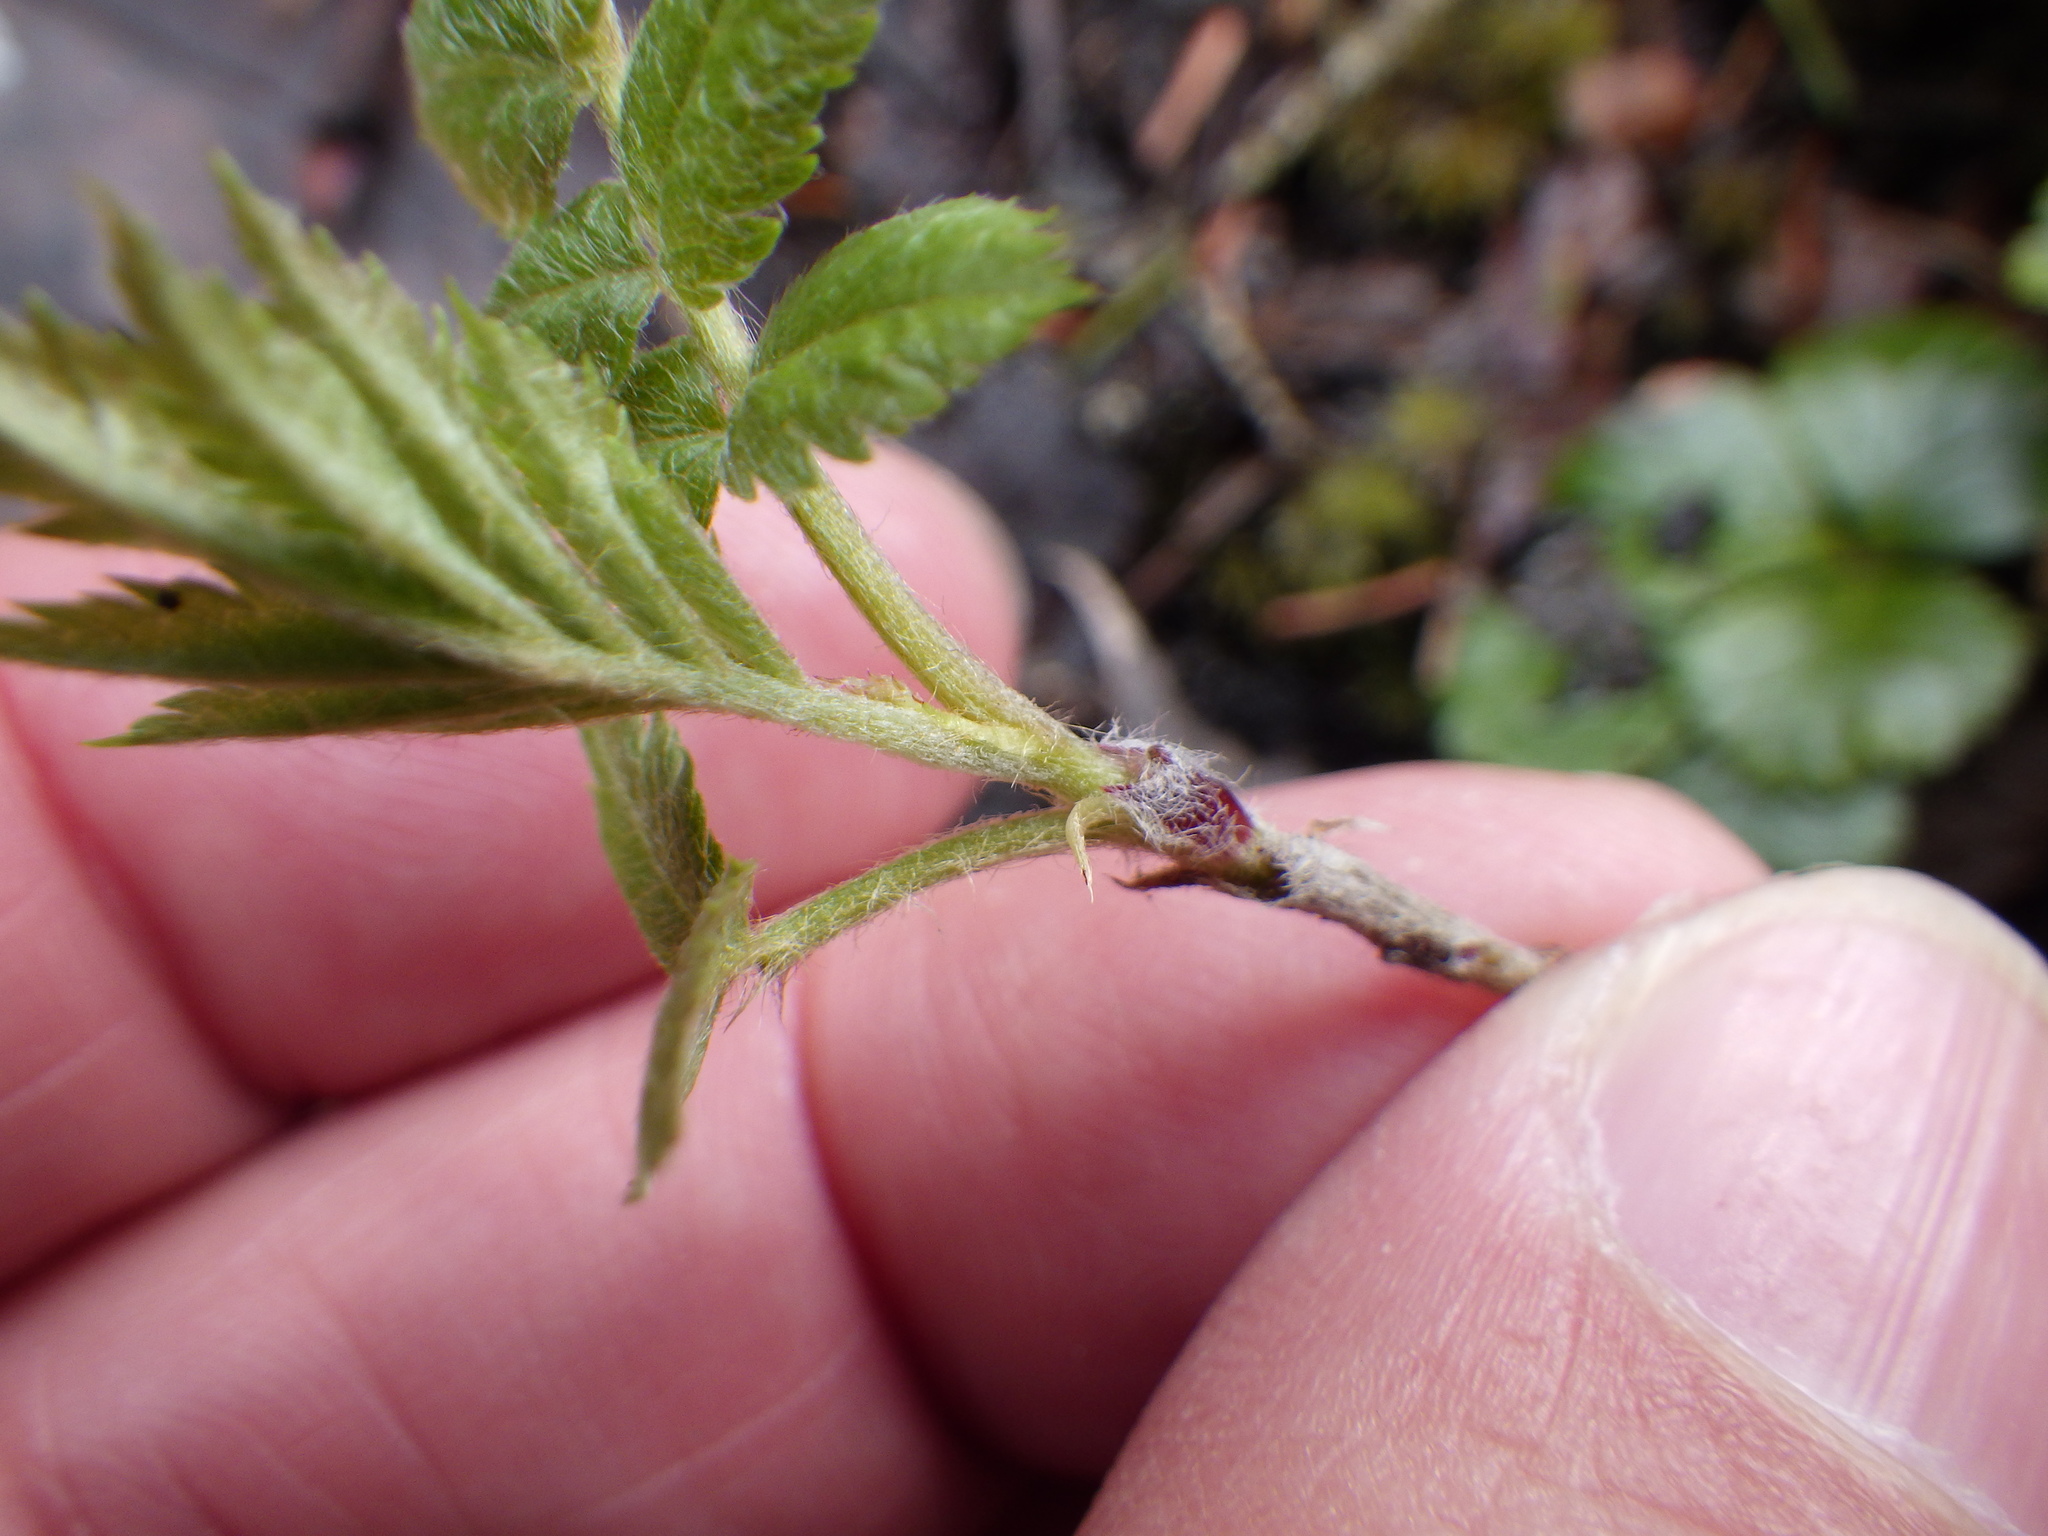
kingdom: Plantae
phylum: Tracheophyta
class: Magnoliopsida
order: Rosales
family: Rosaceae
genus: Sorbus
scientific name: Sorbus americana
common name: American mountain-ash
